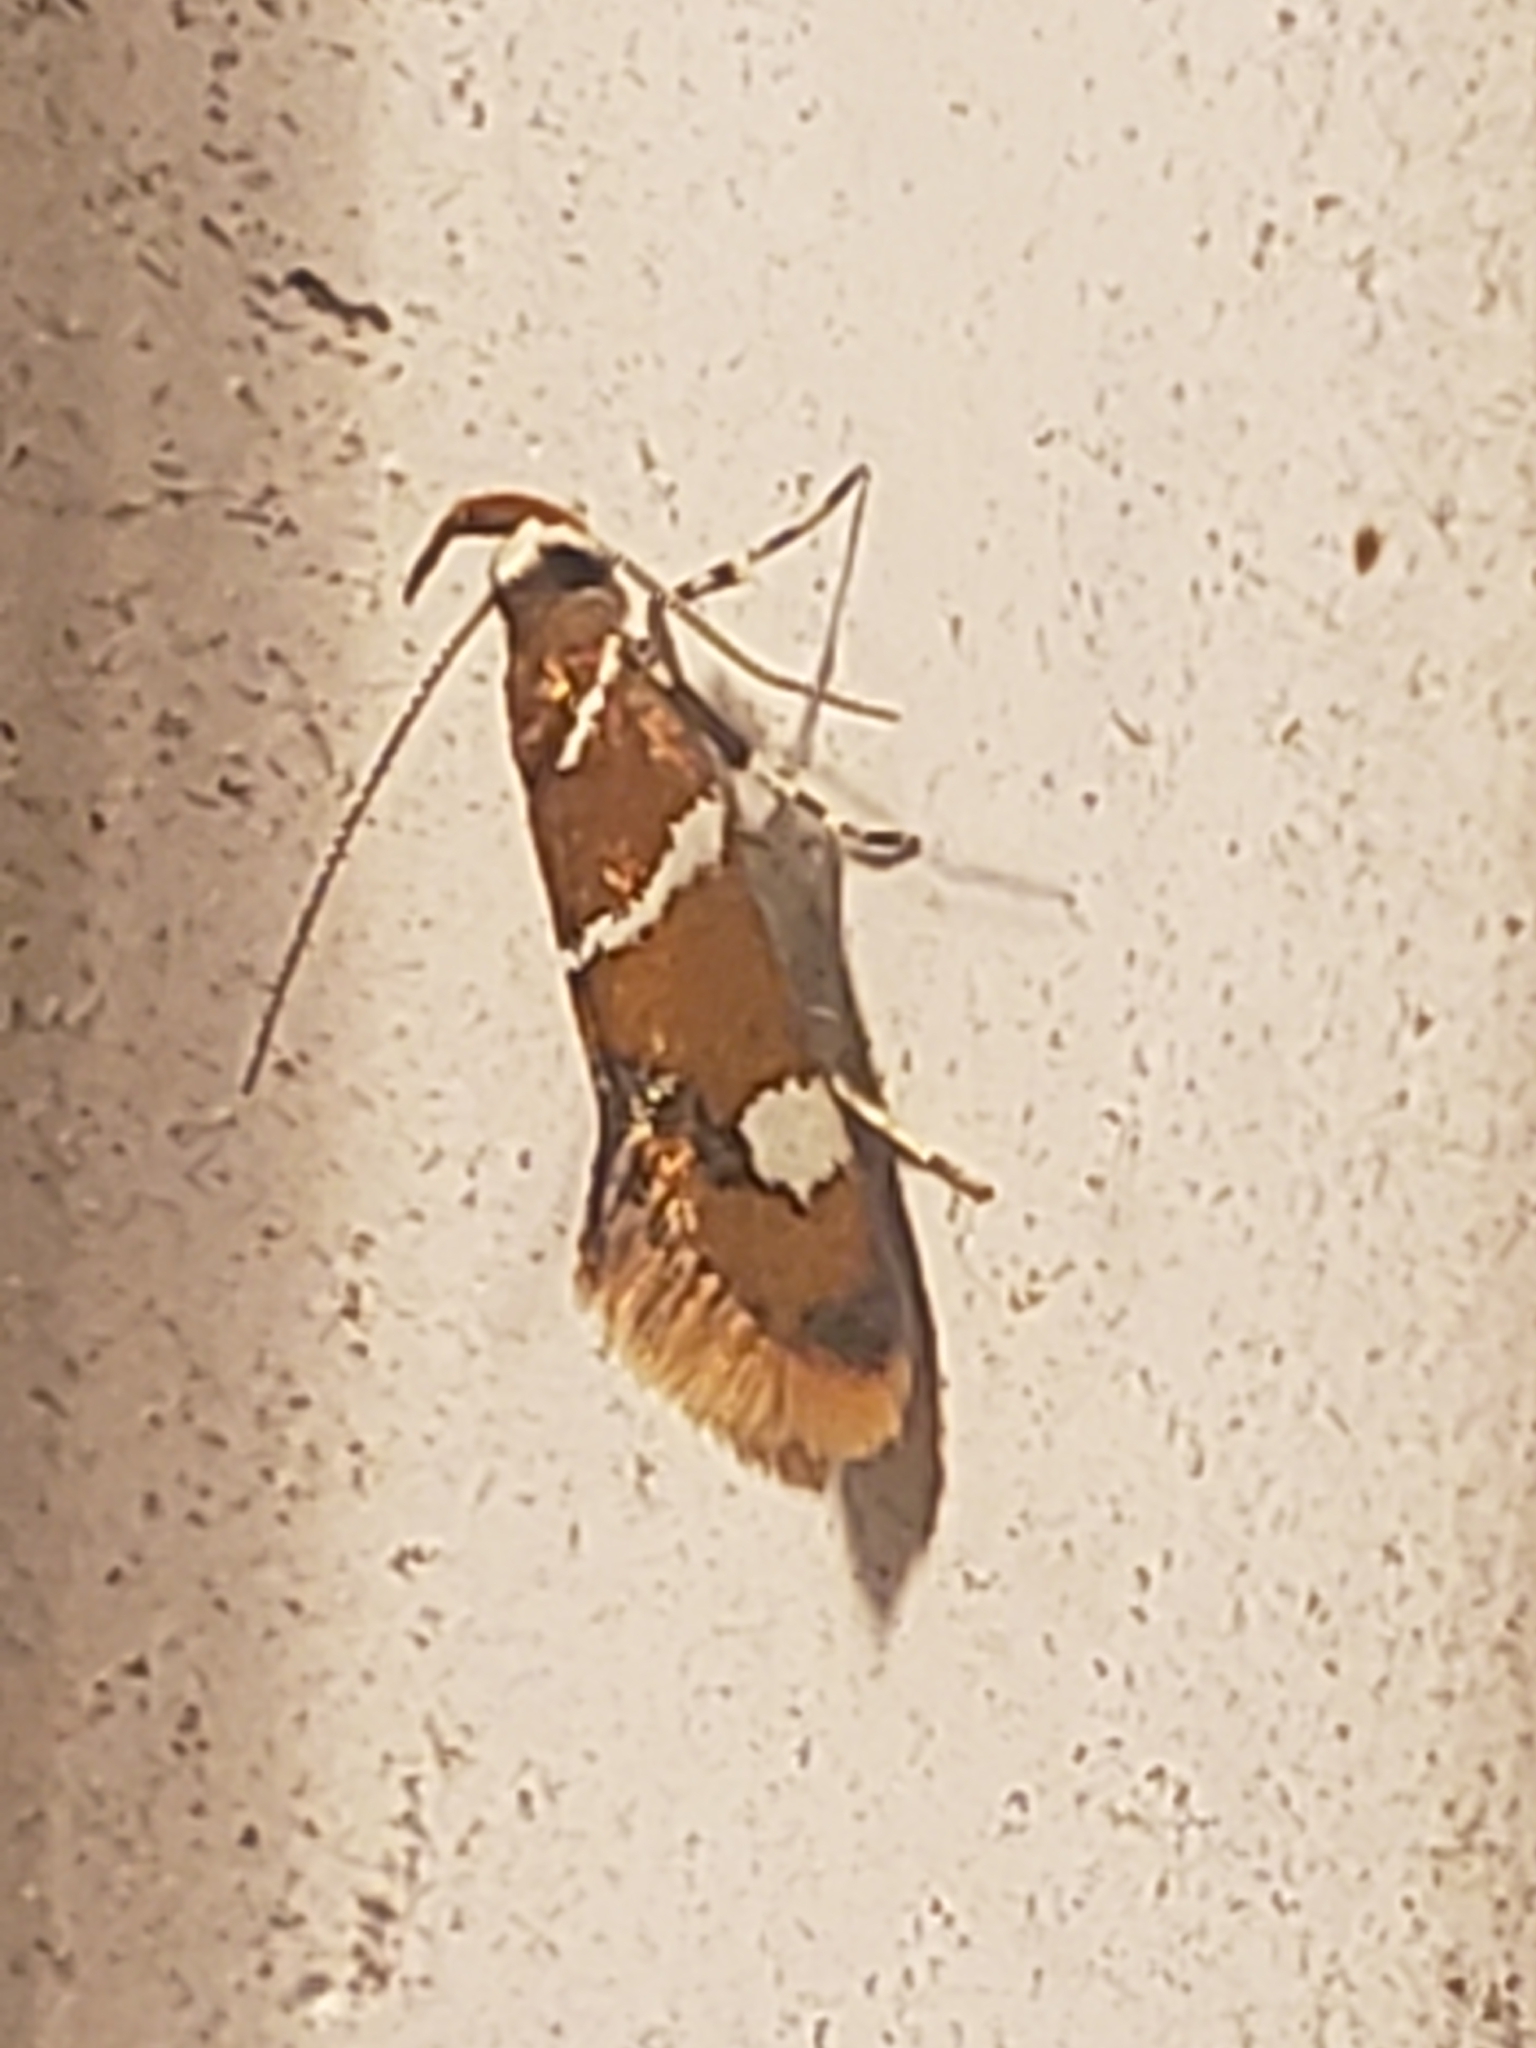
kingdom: Animalia
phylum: Arthropoda
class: Insecta
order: Lepidoptera
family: Oecophoridae
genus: Promalactis
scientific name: Promalactis suzukiella
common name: Moth
